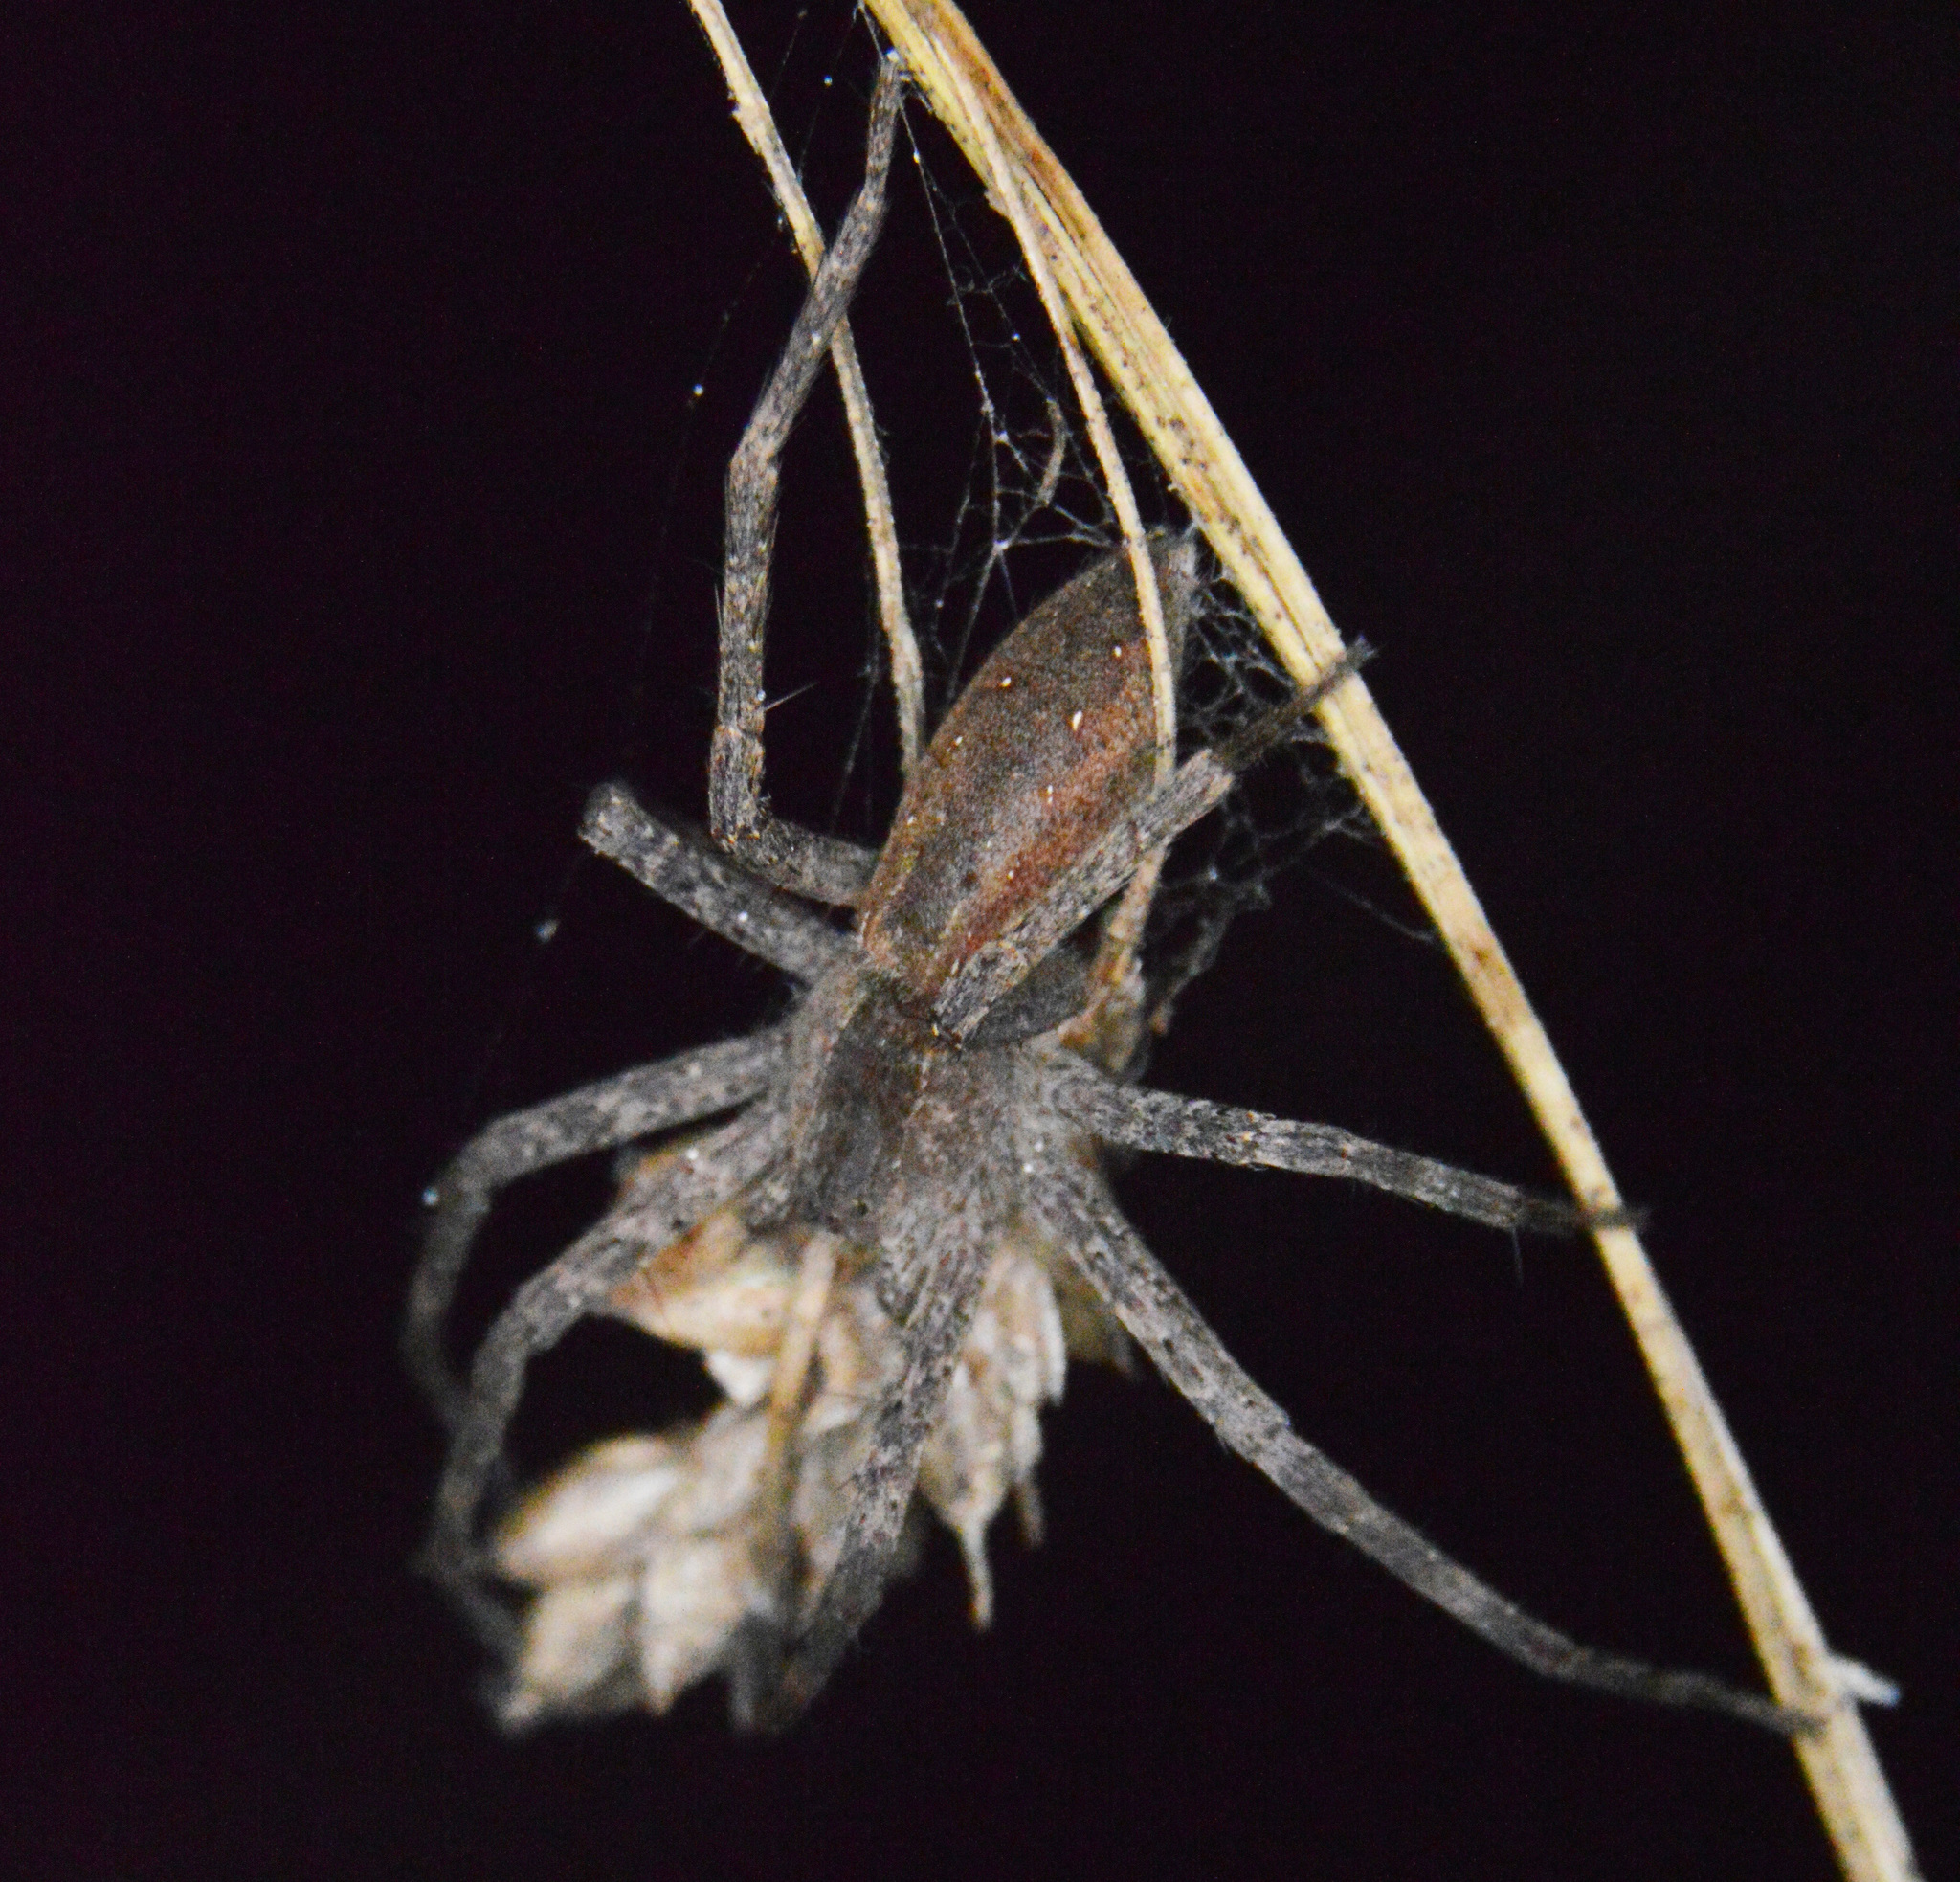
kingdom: Animalia
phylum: Arthropoda
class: Arachnida
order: Araneae
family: Pisauridae
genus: Pisaurina
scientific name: Pisaurina mira
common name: American nursery web spider
